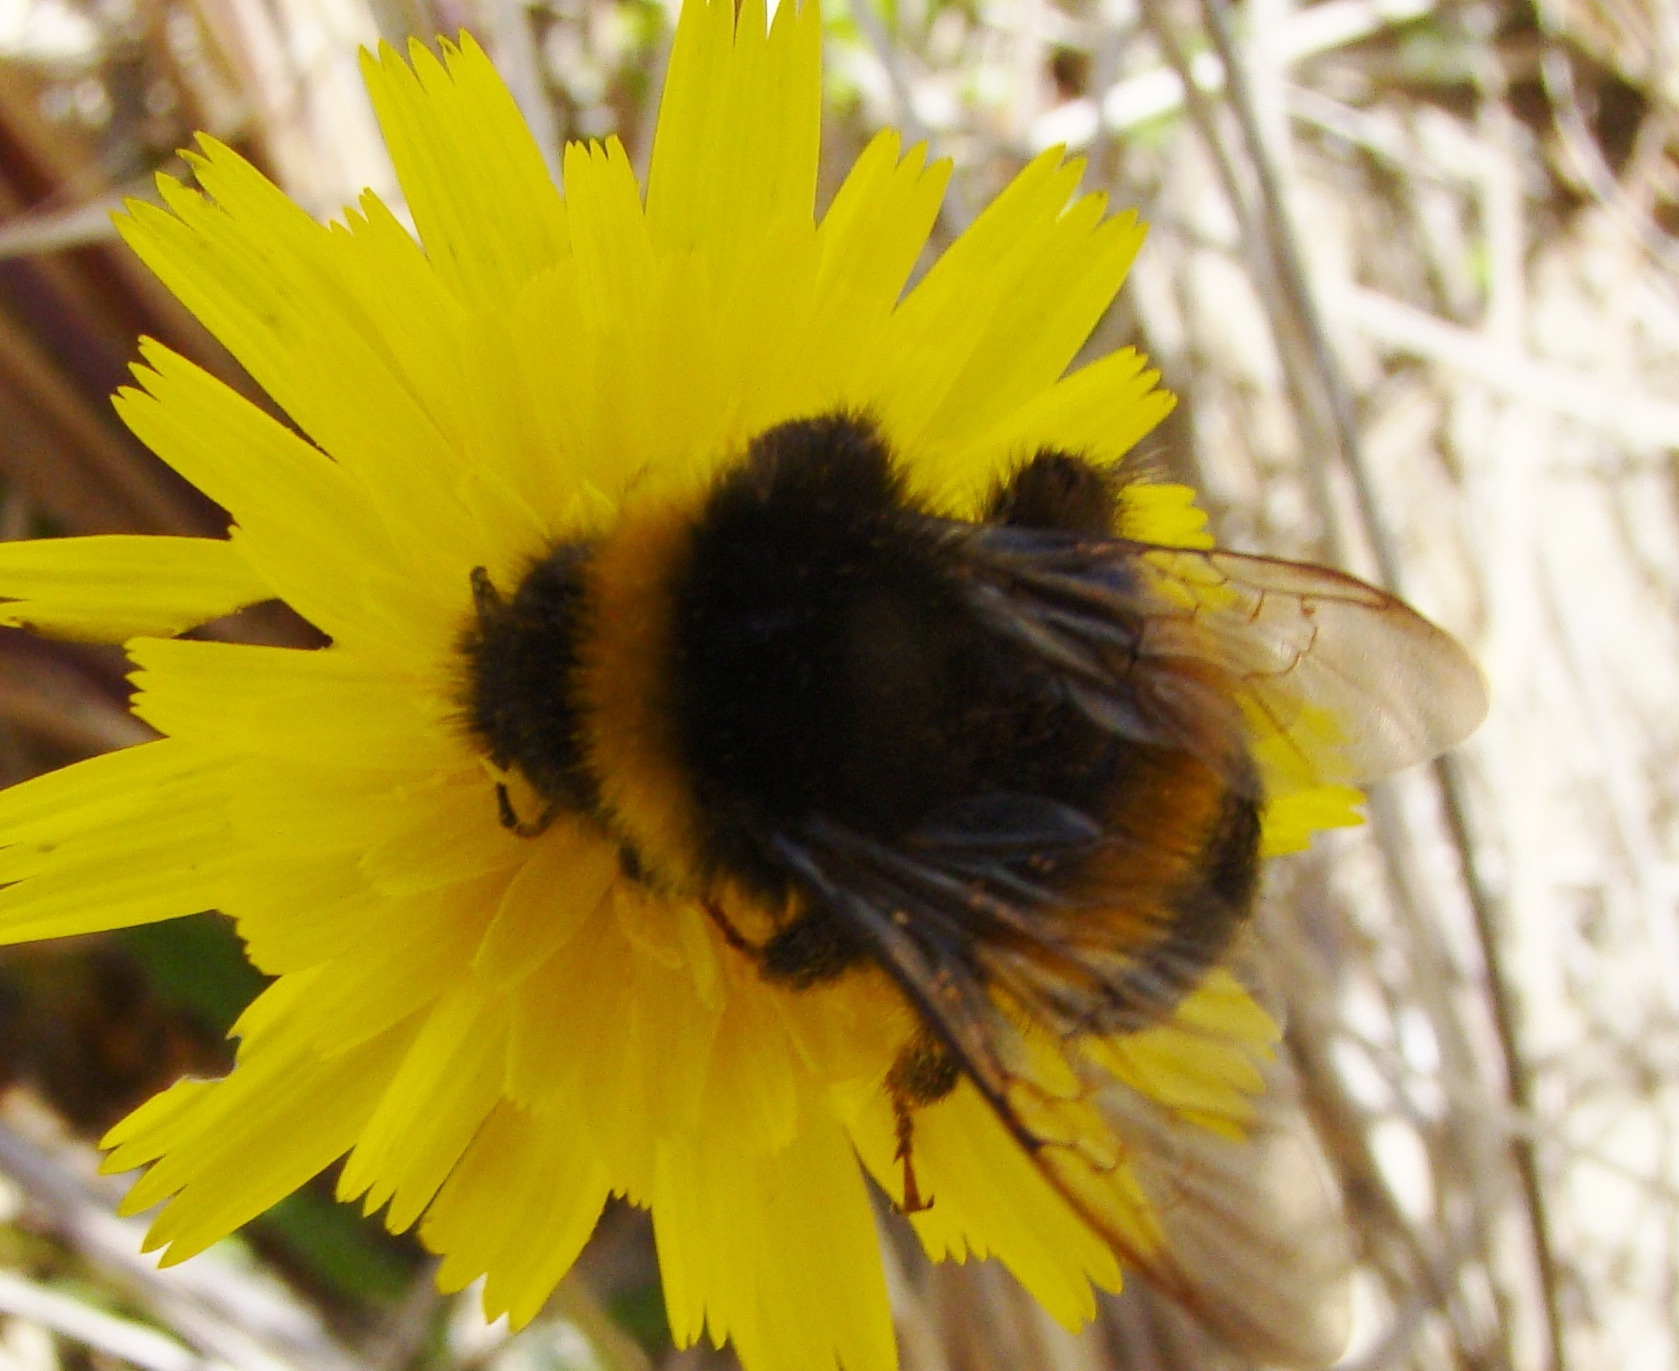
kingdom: Animalia
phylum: Arthropoda
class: Insecta
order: Hymenoptera
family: Apidae
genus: Bombus
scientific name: Bombus terrestris
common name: Buff-tailed bumblebee
